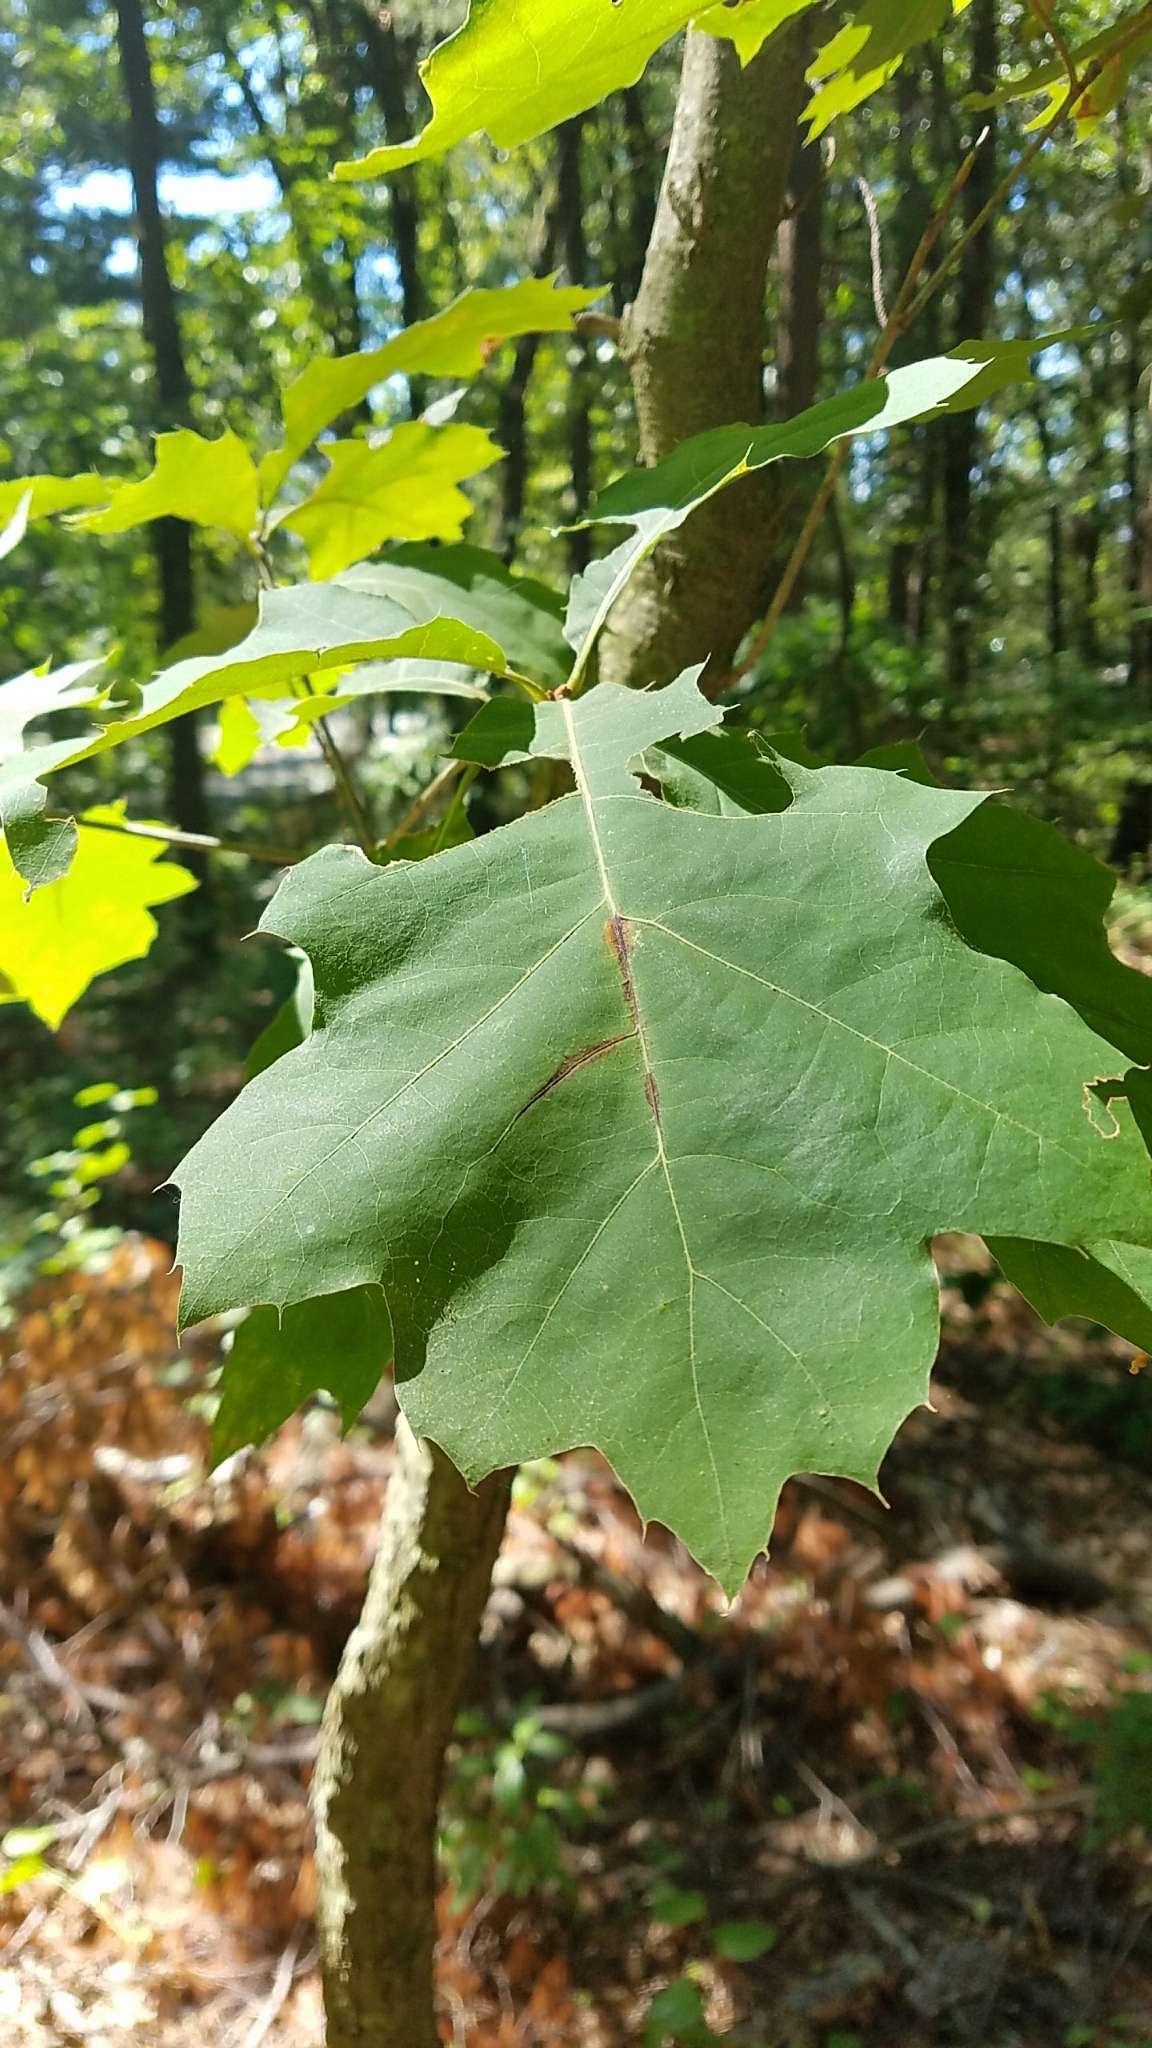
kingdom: Plantae
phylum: Tracheophyta
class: Magnoliopsida
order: Fagales
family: Fagaceae
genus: Quercus
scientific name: Quercus rubra
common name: Red oak
